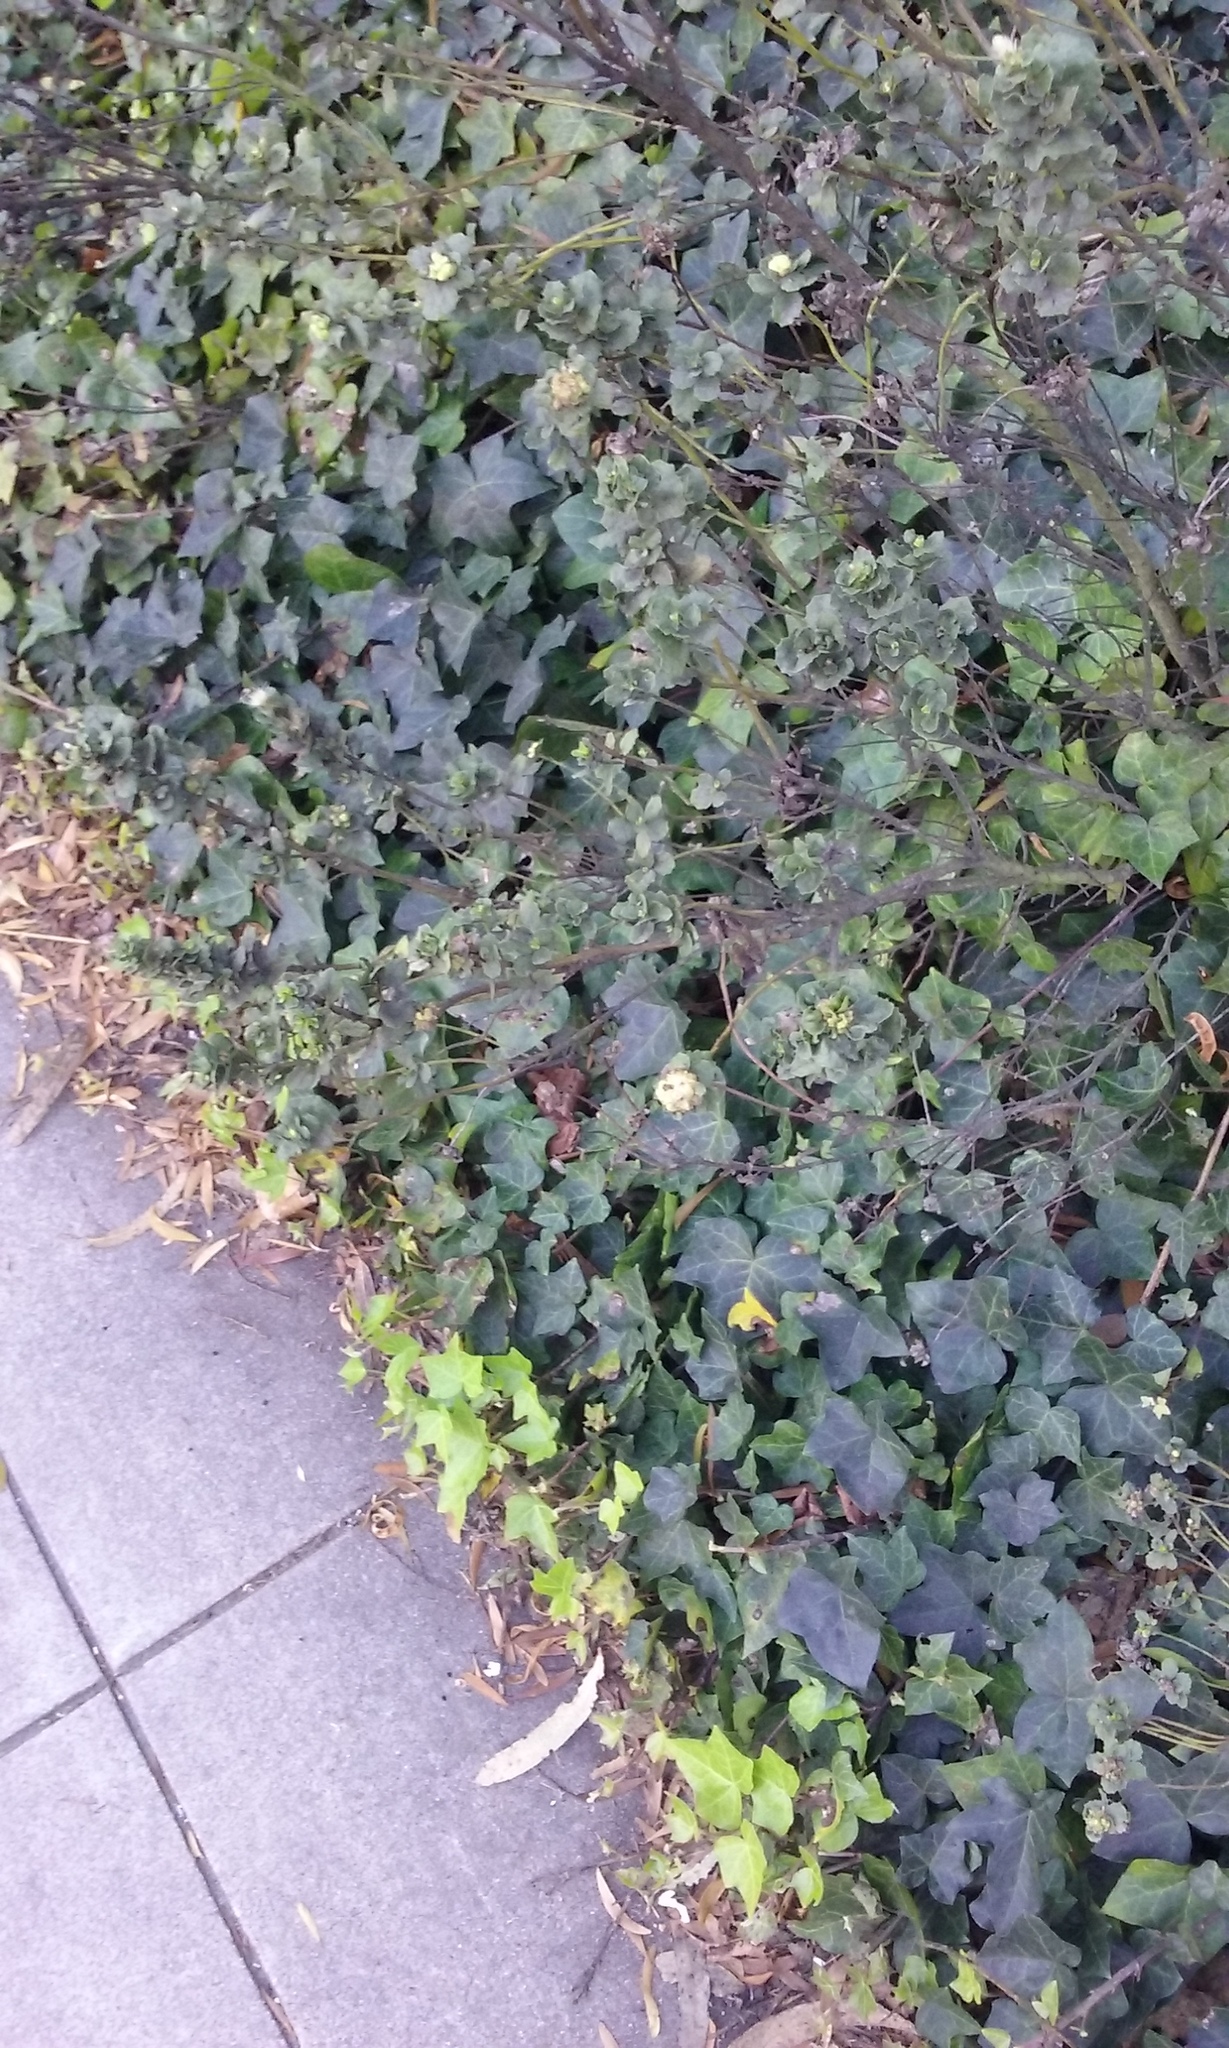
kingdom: Animalia
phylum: Arthropoda
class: Insecta
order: Diptera
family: Cecidomyiidae
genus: Rhopalomyia
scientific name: Rhopalomyia californica
